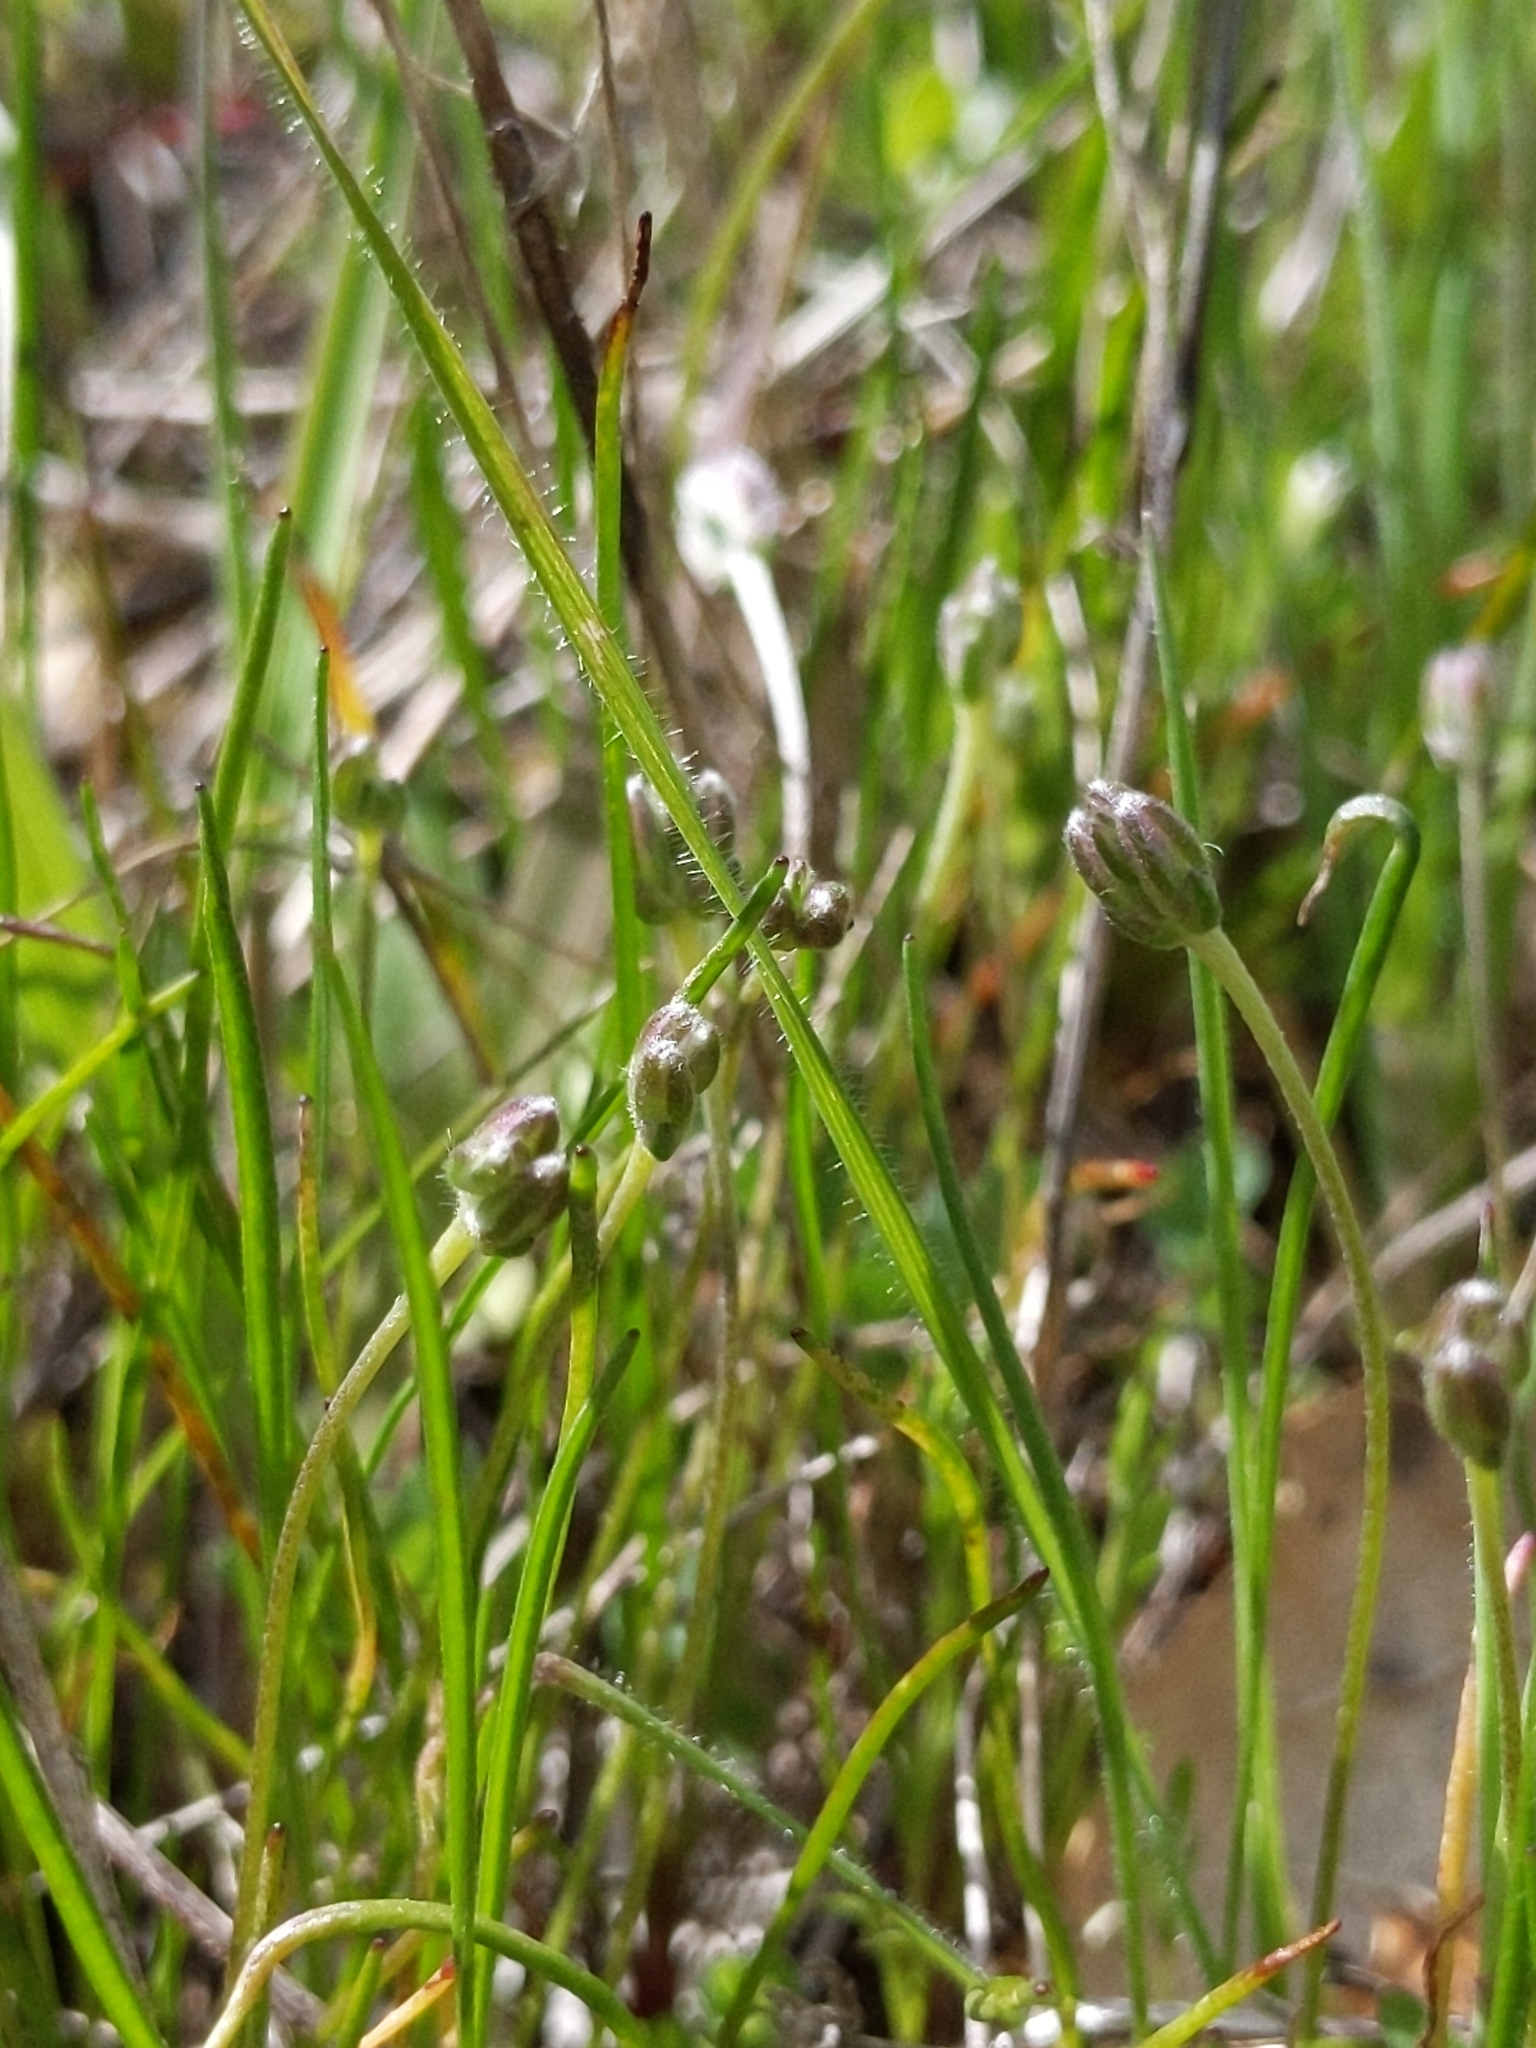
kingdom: Plantae
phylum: Tracheophyta
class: Magnoliopsida
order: Lamiales
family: Plantaginaceae
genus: Plantago
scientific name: Plantago erecta
